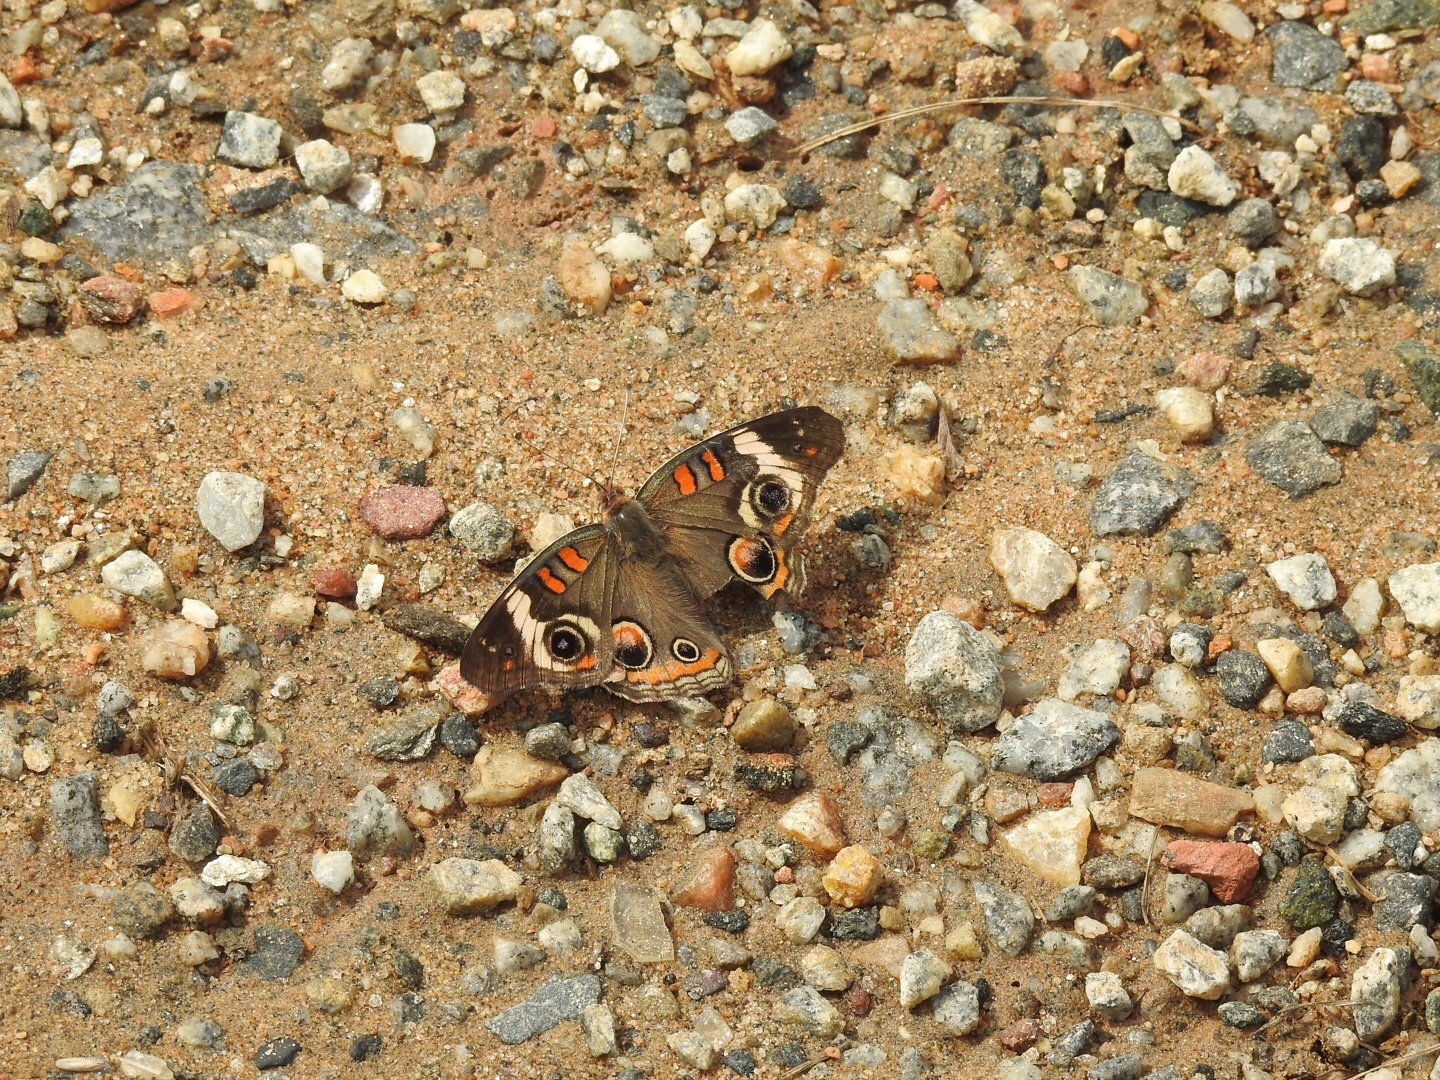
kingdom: Animalia
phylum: Arthropoda
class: Insecta
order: Lepidoptera
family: Nymphalidae
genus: Junonia
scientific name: Junonia coenia
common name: Common buckeye
